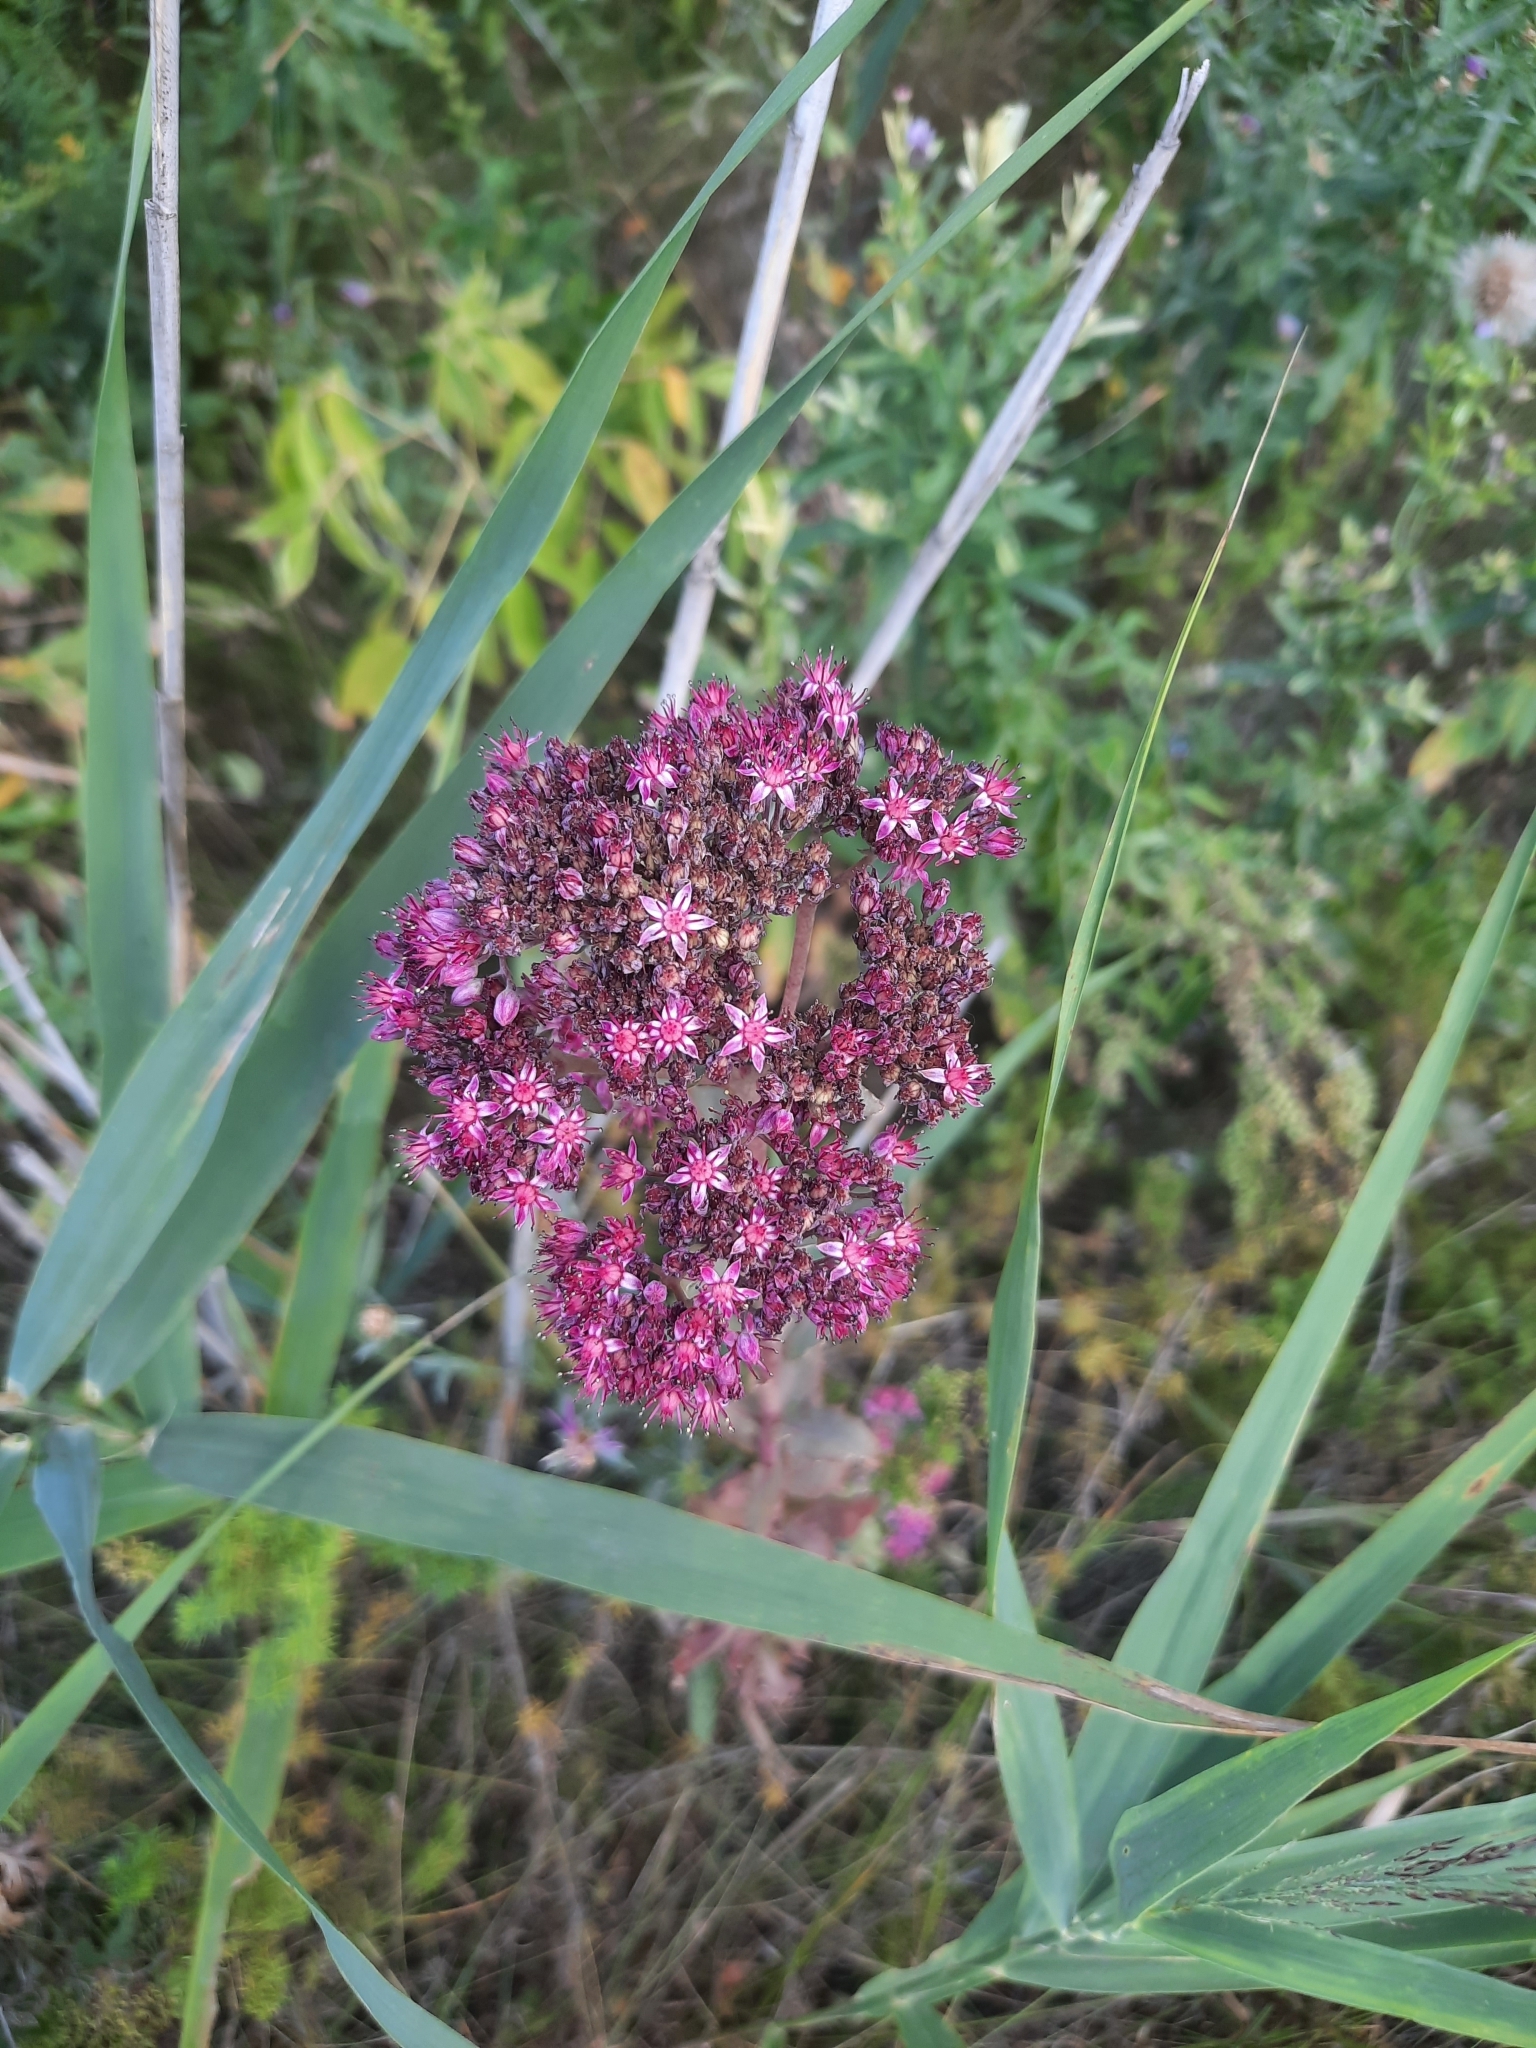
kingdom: Plantae
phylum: Tracheophyta
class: Magnoliopsida
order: Saxifragales
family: Crassulaceae
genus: Hylotelephium
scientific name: Hylotelephium telephium
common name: Live-forever
